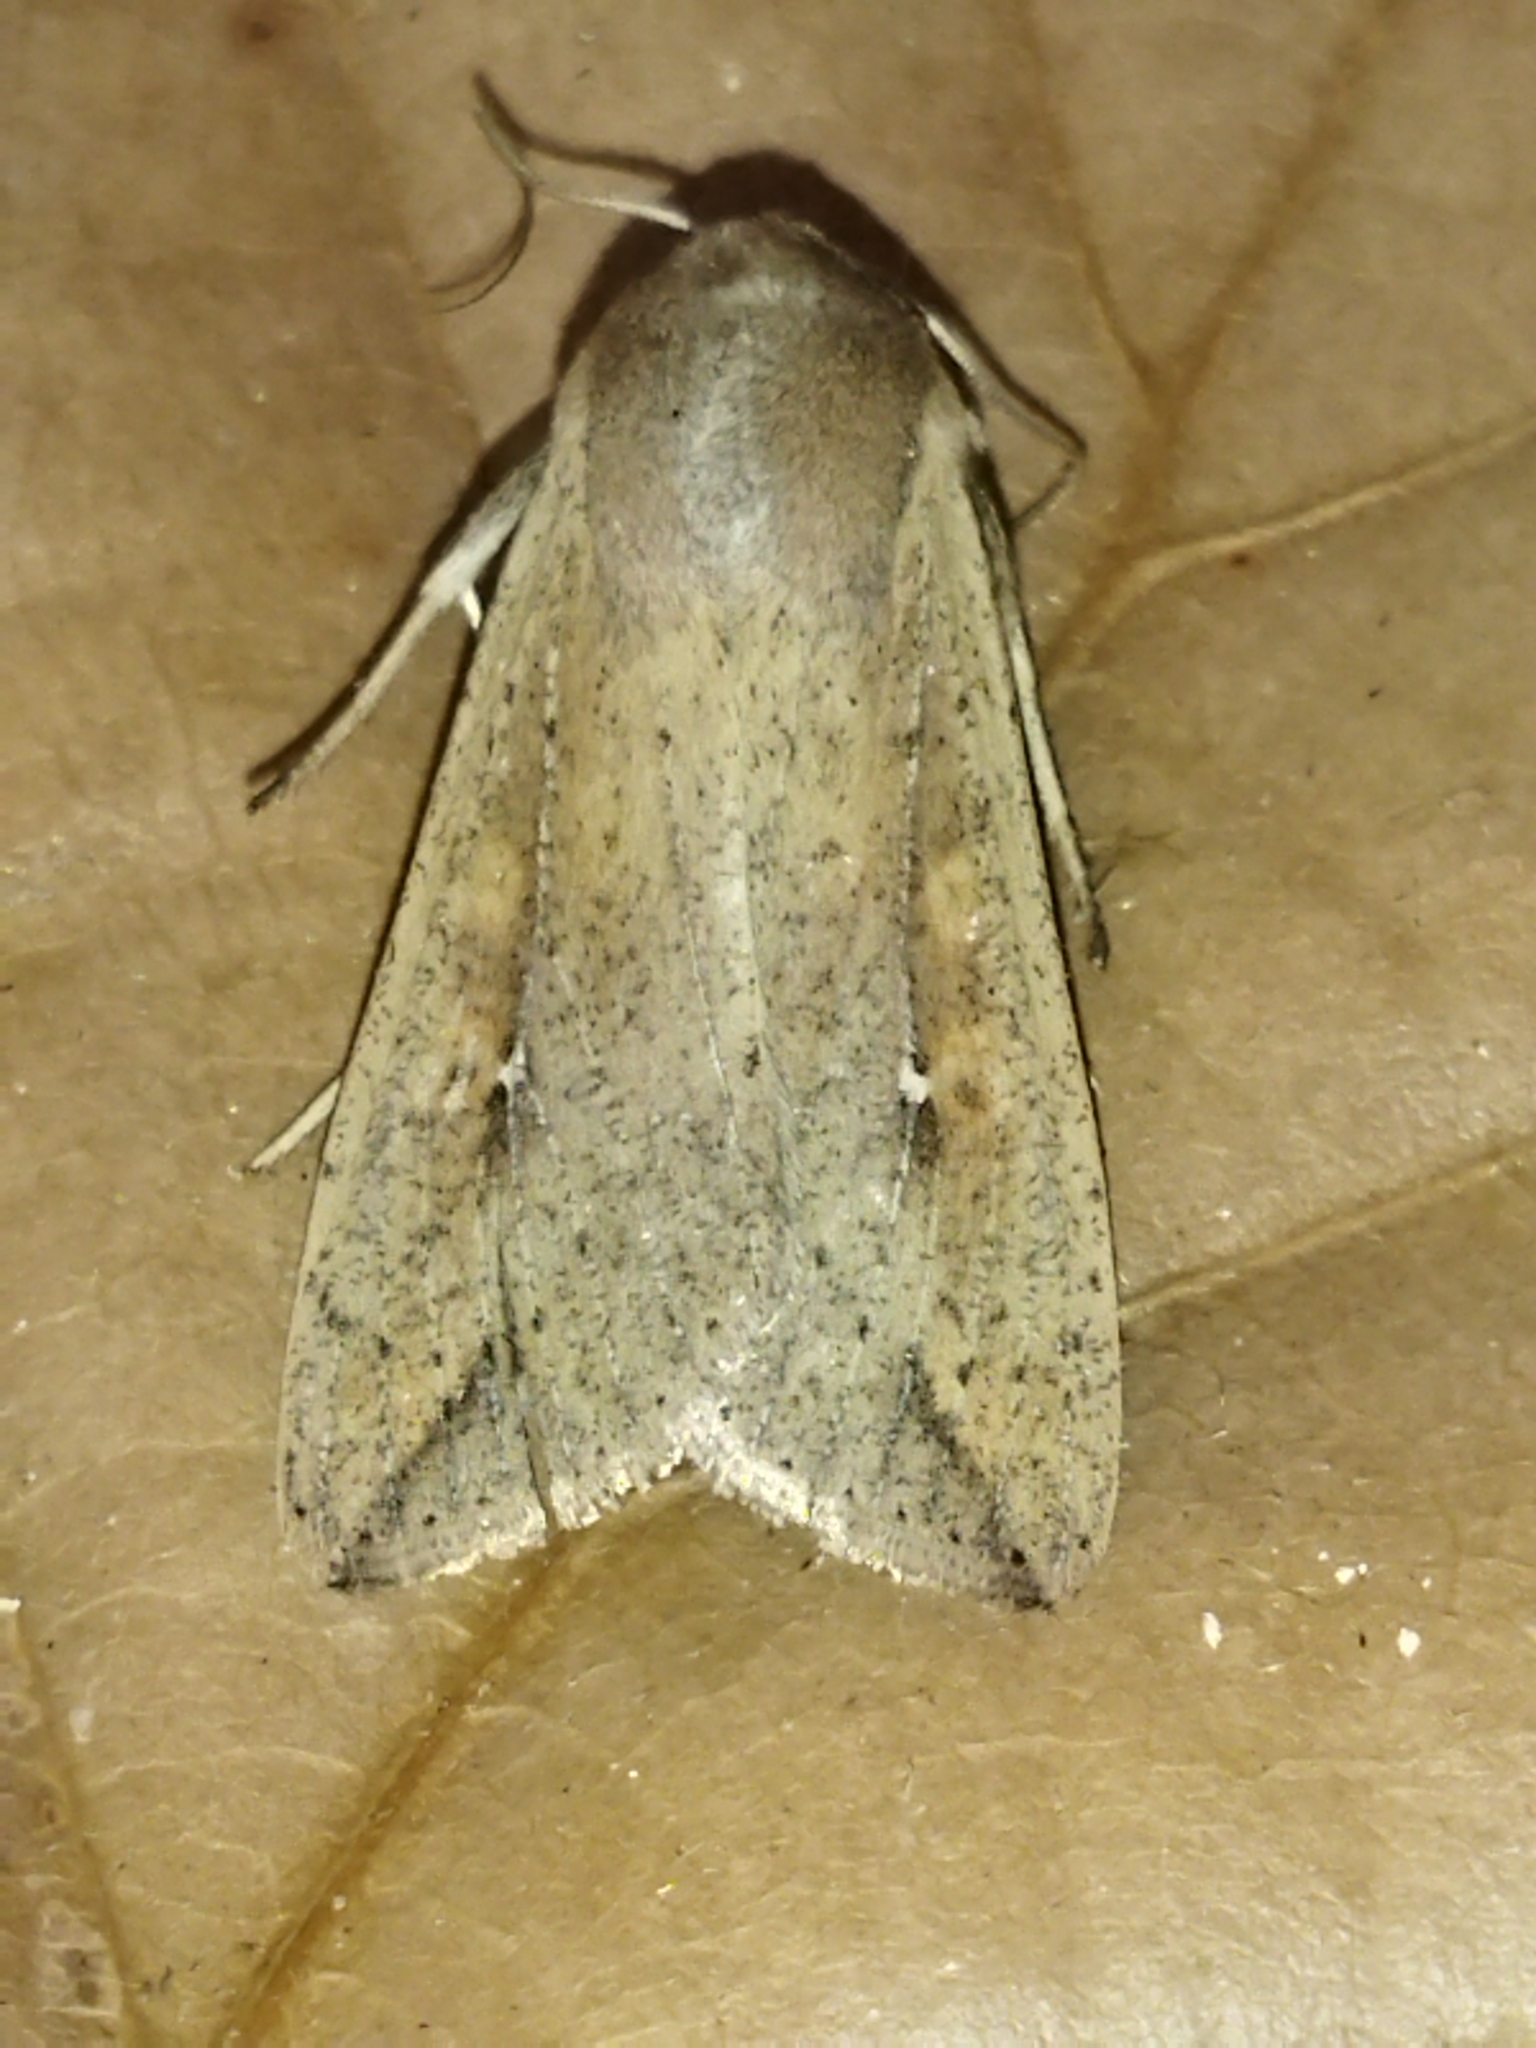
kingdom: Animalia
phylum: Arthropoda
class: Insecta
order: Lepidoptera
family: Noctuidae
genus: Mythimna
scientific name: Mythimna unipuncta
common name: White-speck
